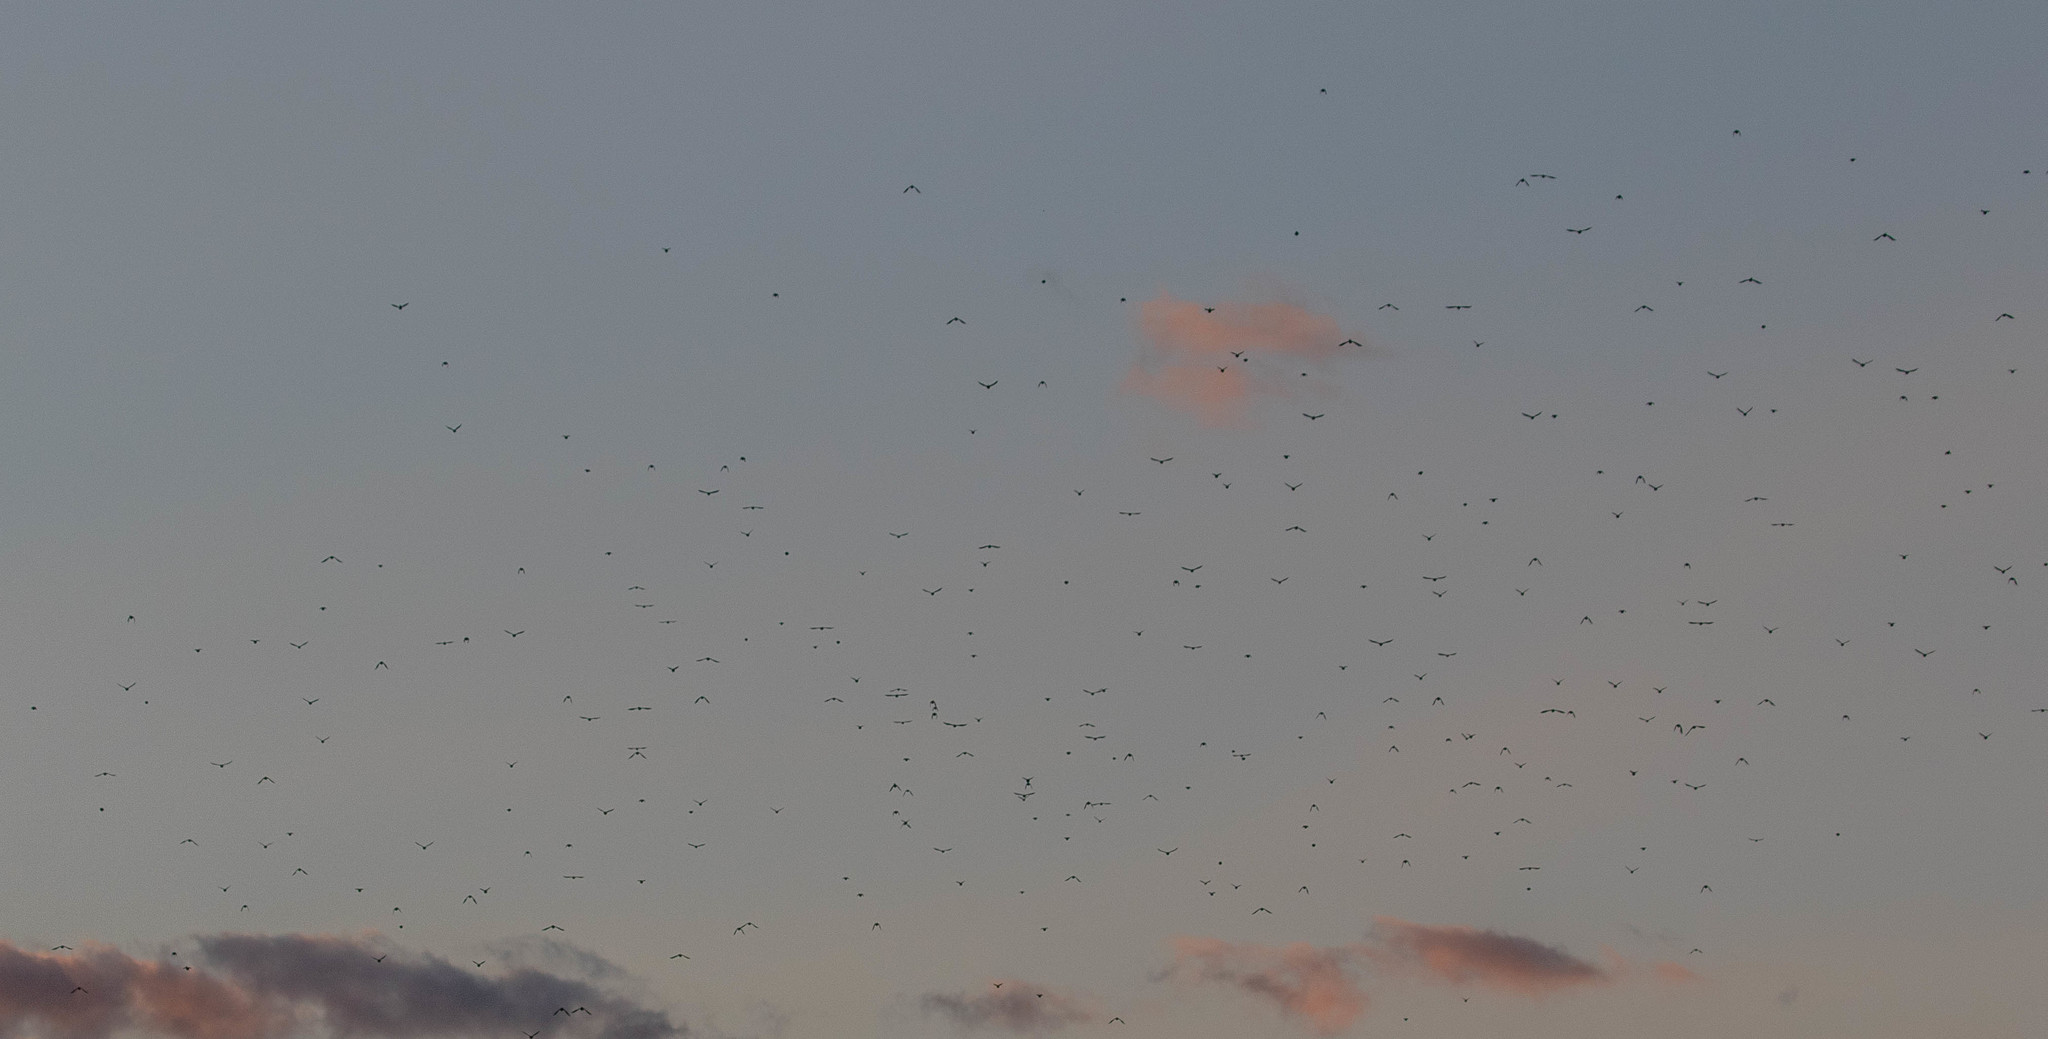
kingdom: Animalia
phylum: Chordata
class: Aves
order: Passeriformes
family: Icteridae
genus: Quiscalus
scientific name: Quiscalus quiscula
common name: Common grackle
